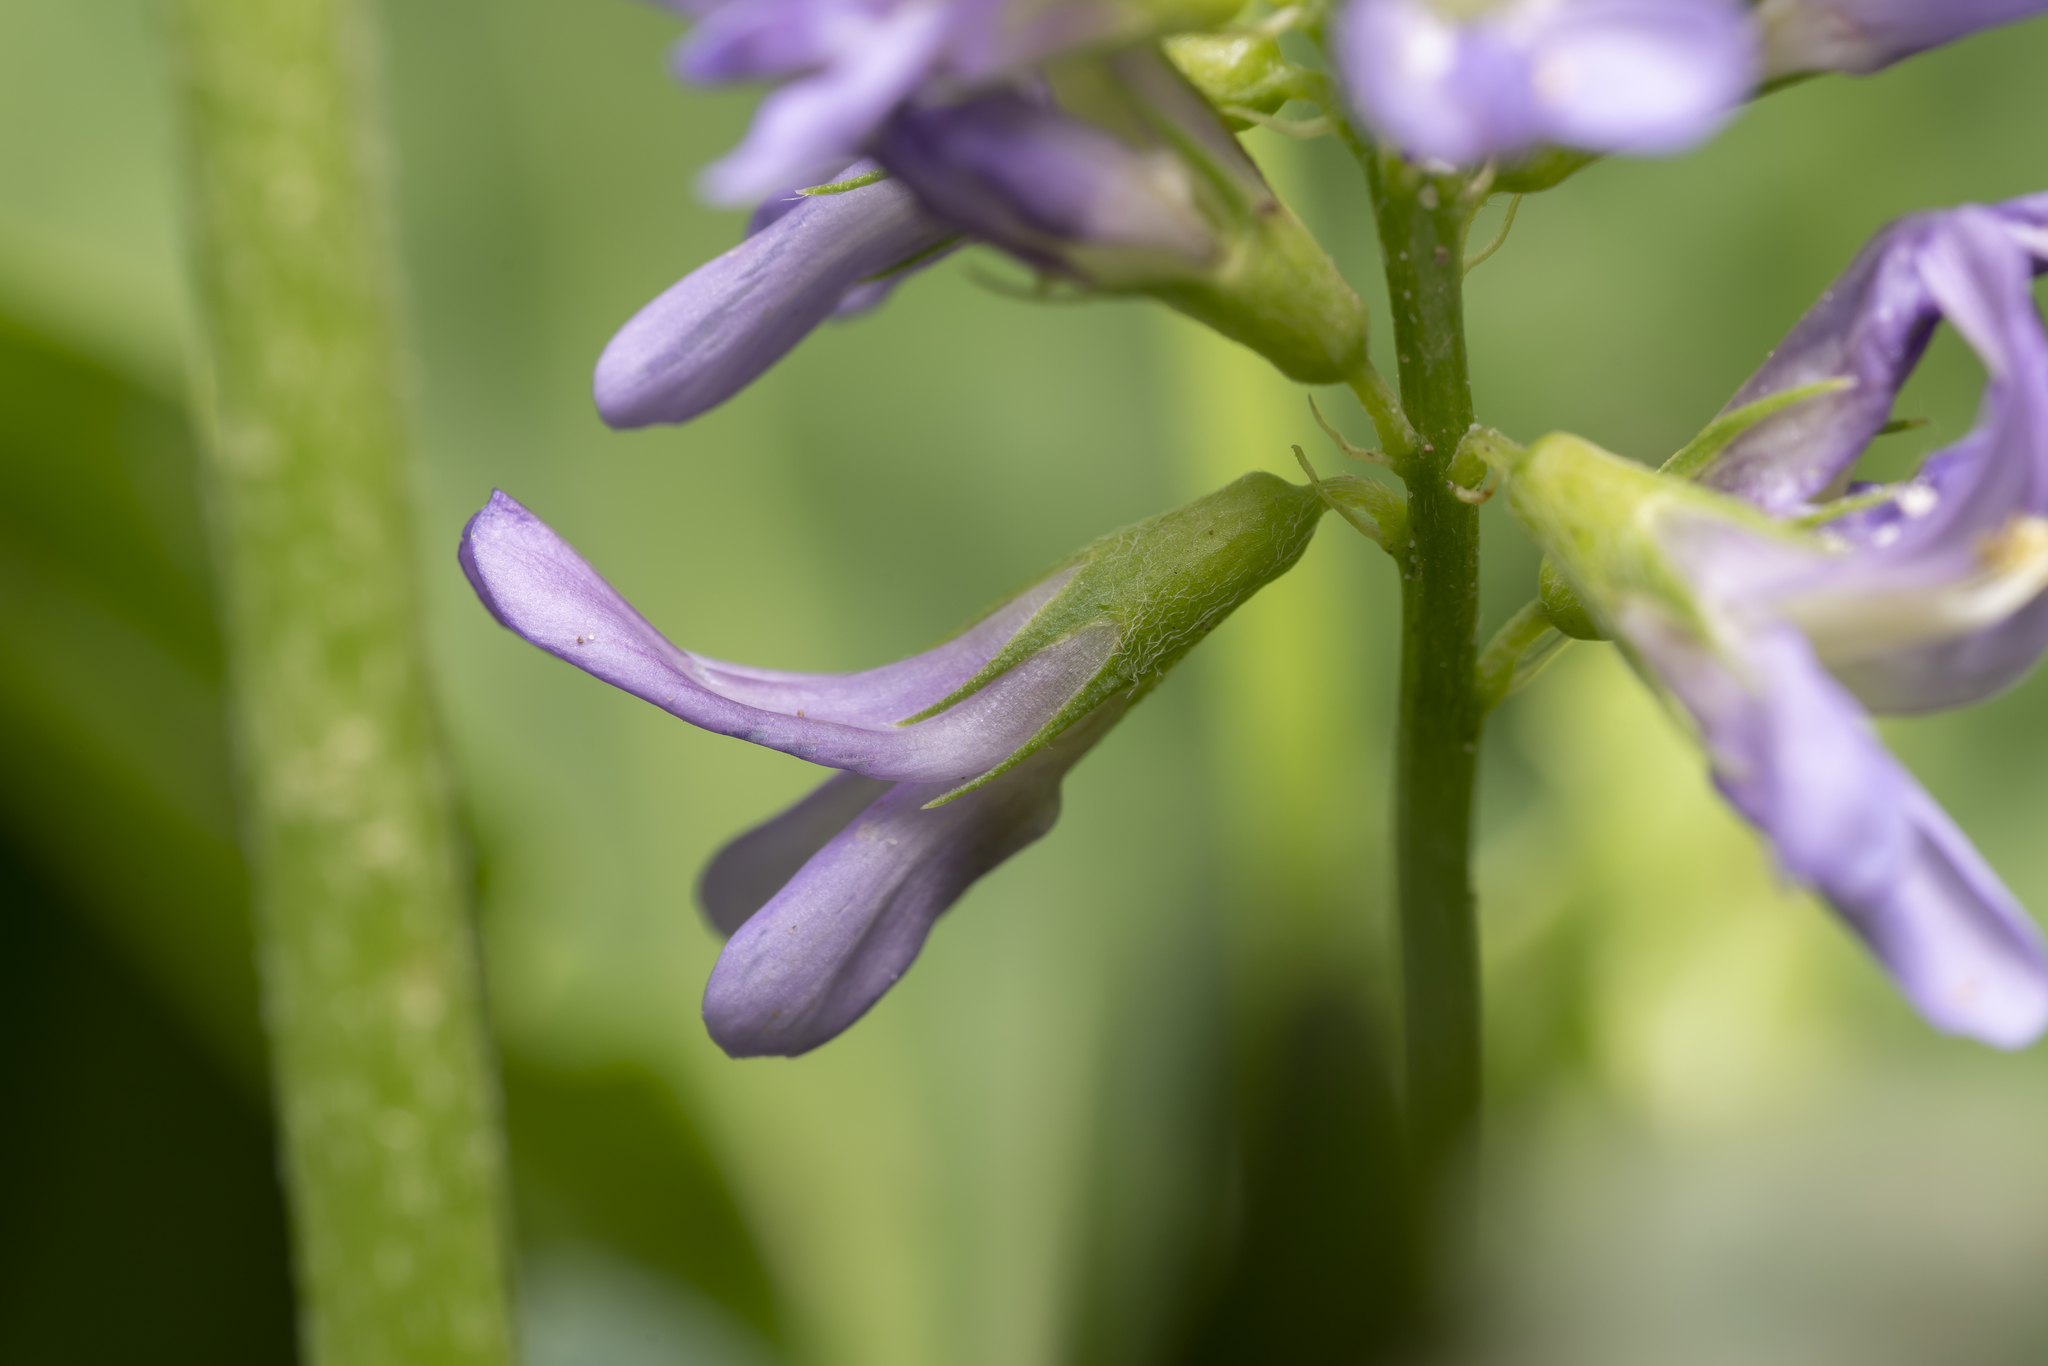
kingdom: Plantae
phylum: Tracheophyta
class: Magnoliopsida
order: Fabales
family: Fabaceae
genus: Medicago
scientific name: Medicago sativa
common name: Alfalfa
